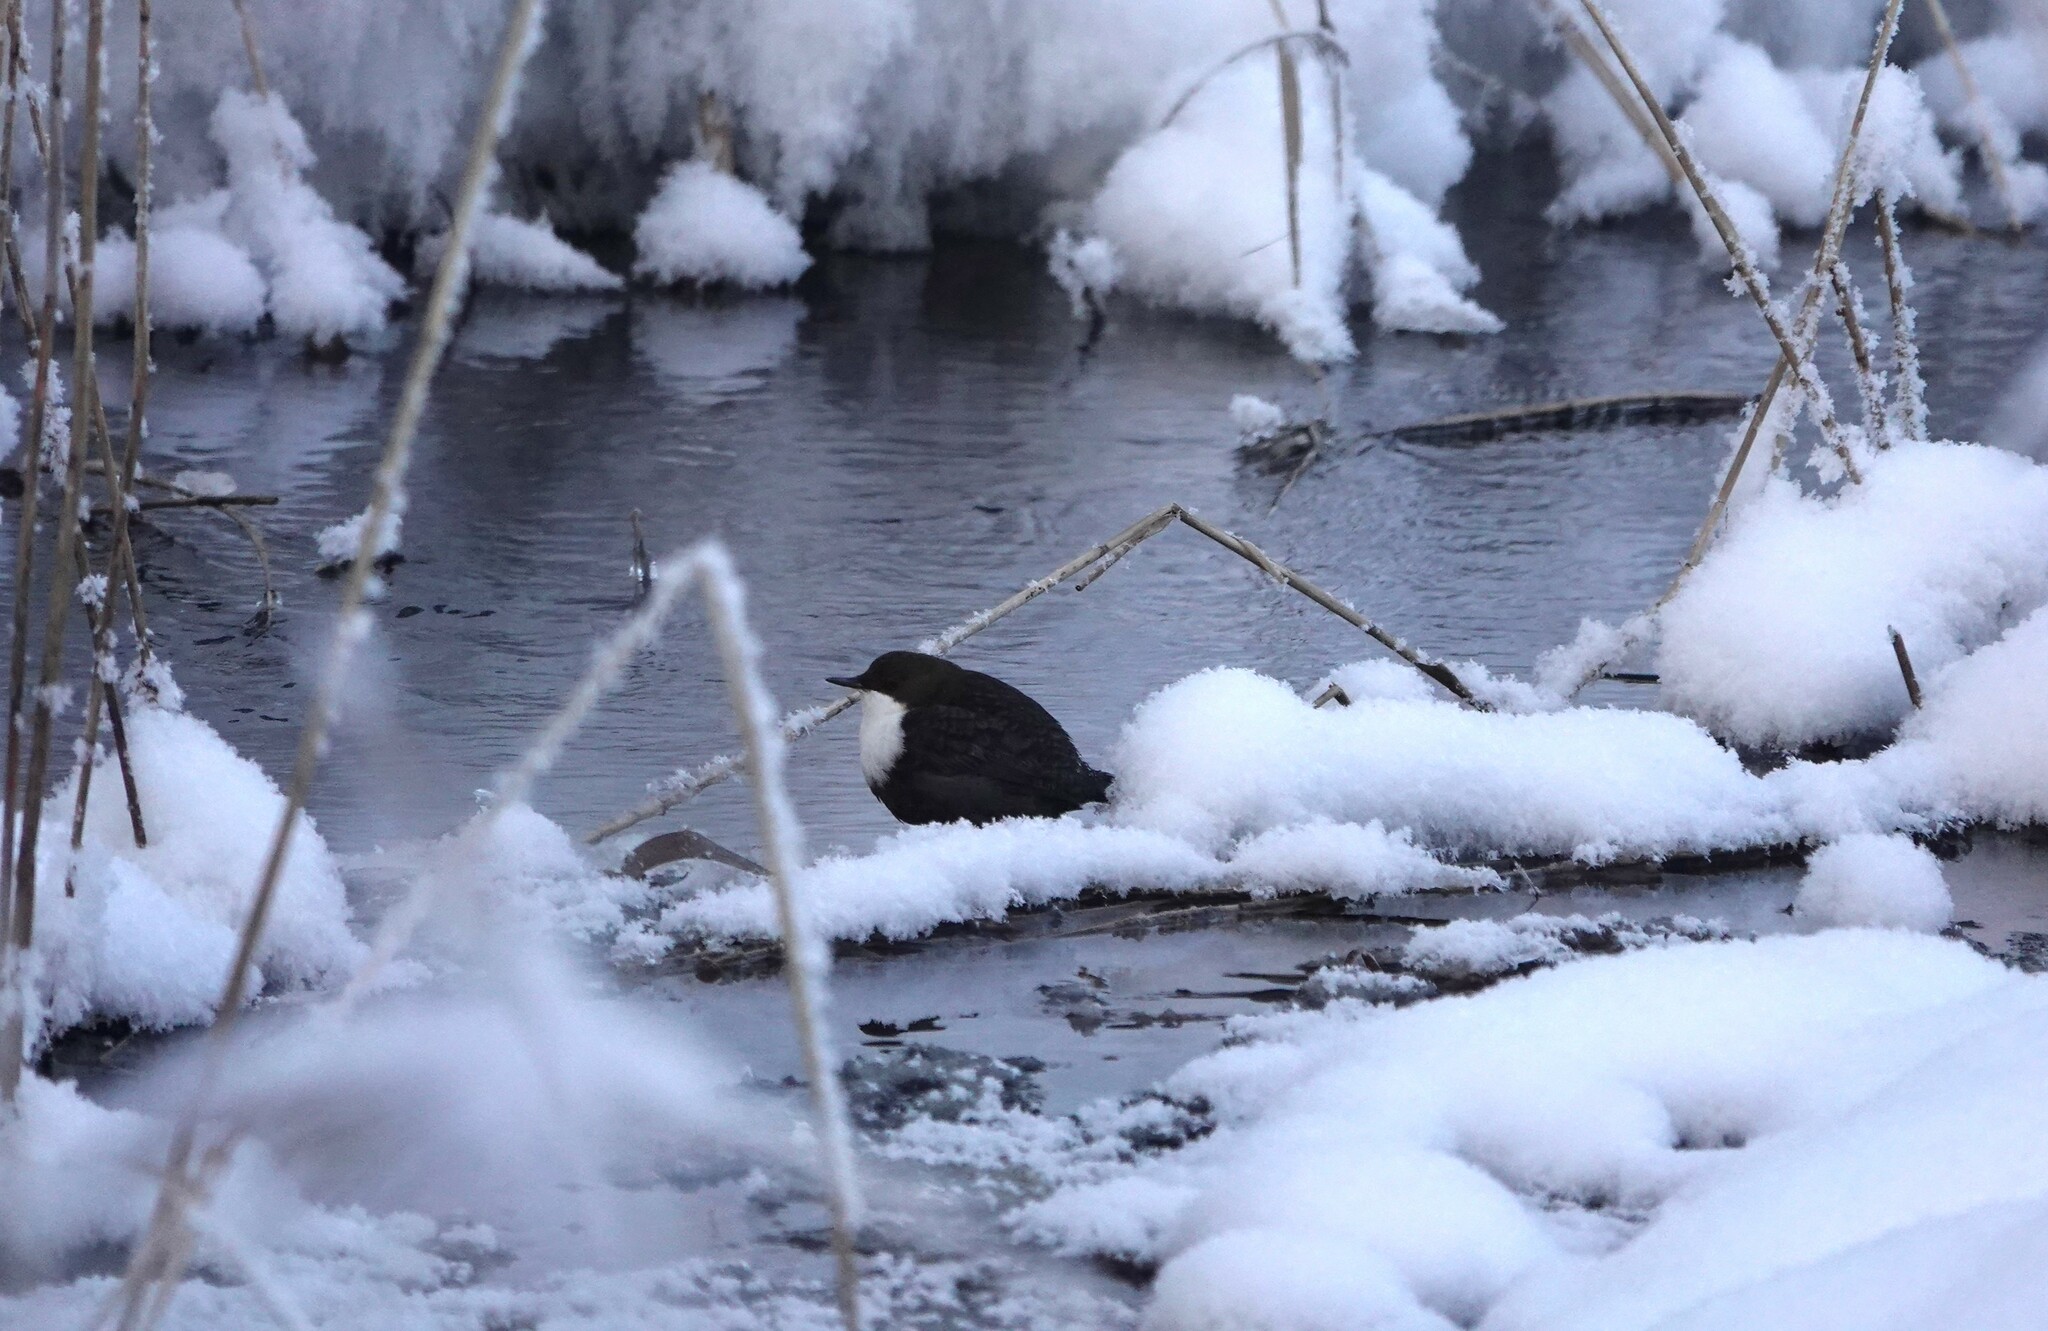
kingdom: Animalia
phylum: Chordata
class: Aves
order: Passeriformes
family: Cinclidae
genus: Cinclus
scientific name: Cinclus cinclus
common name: White-throated dipper
